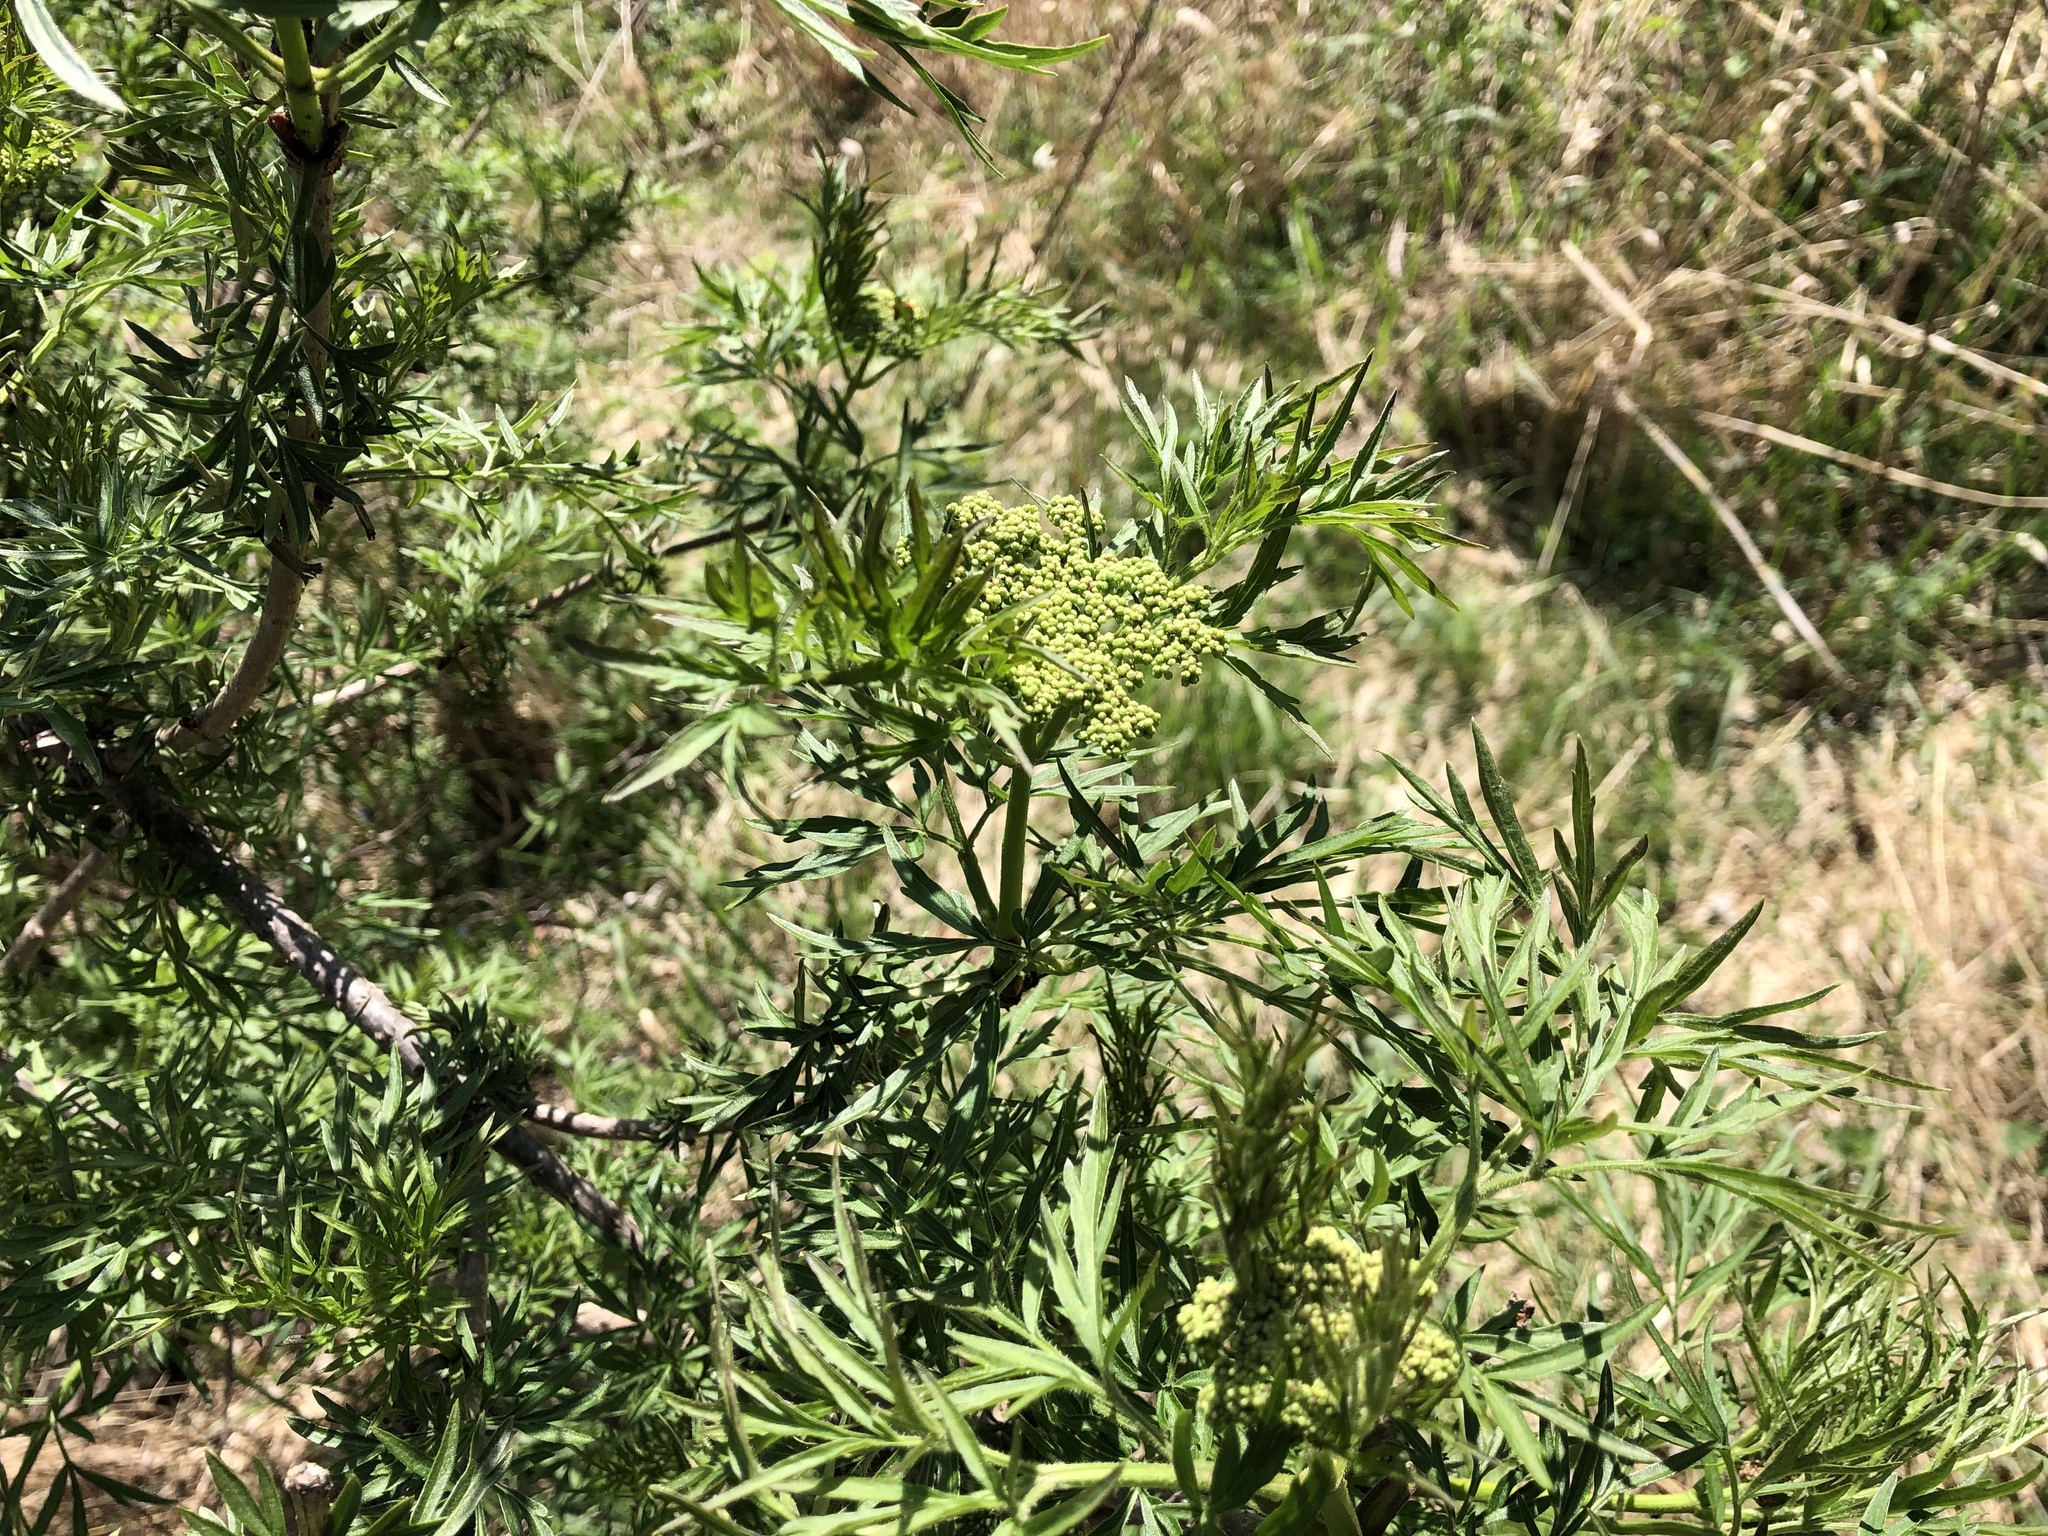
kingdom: Plantae
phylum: Tracheophyta
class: Magnoliopsida
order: Dipsacales
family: Viburnaceae
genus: Sambucus
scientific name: Sambucus nigra
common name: Elder
